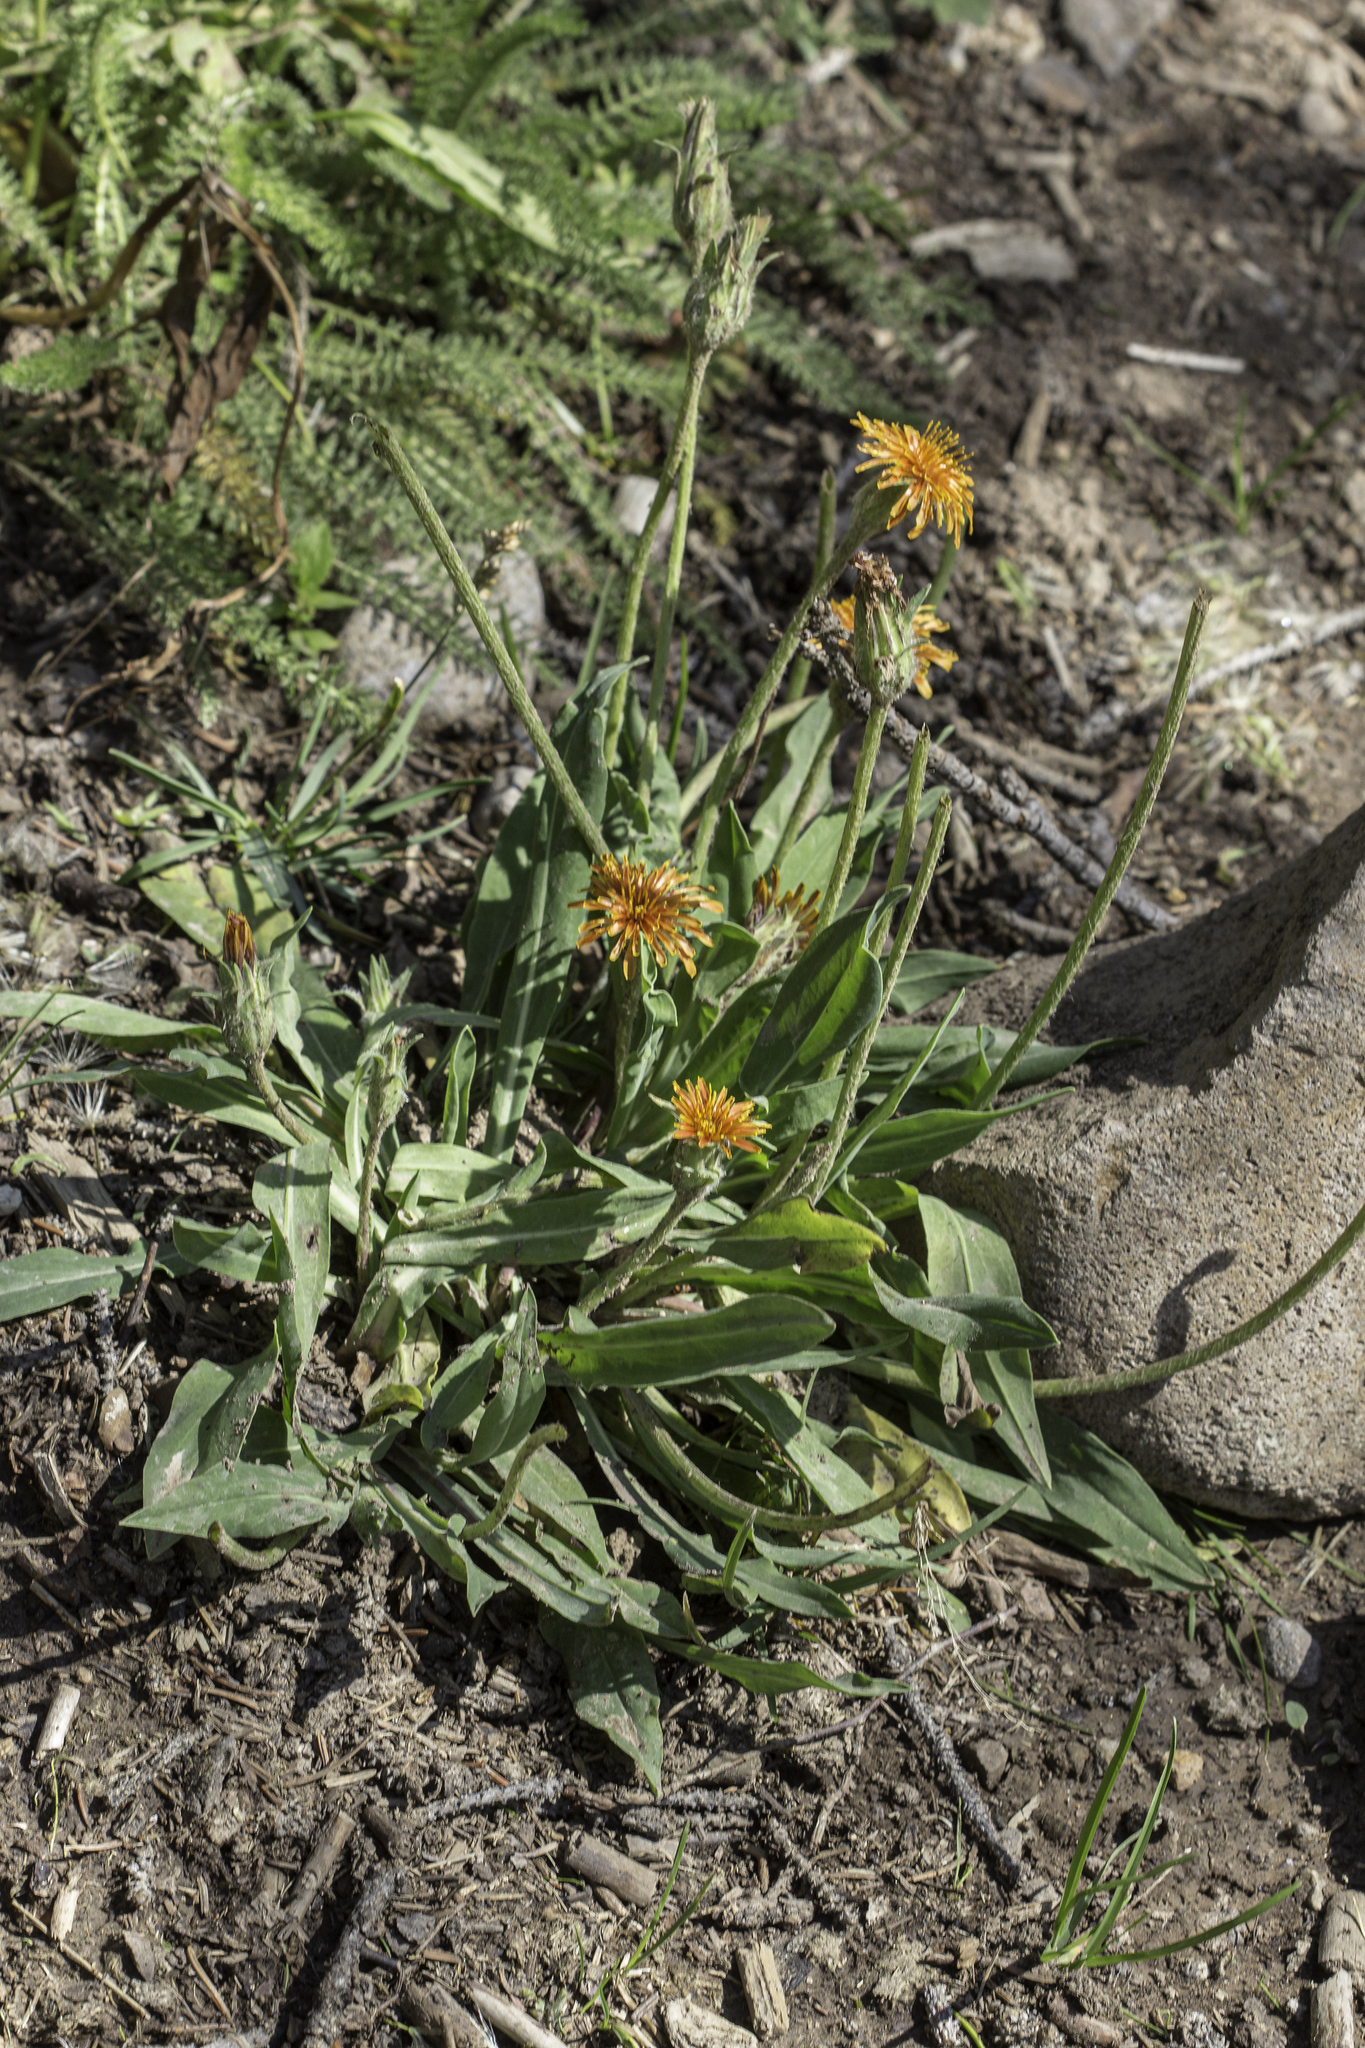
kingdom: Plantae
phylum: Tracheophyta
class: Magnoliopsida
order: Asterales
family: Asteraceae
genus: Agoseris
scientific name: Agoseris aurantiaca
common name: Mountain agoseris
